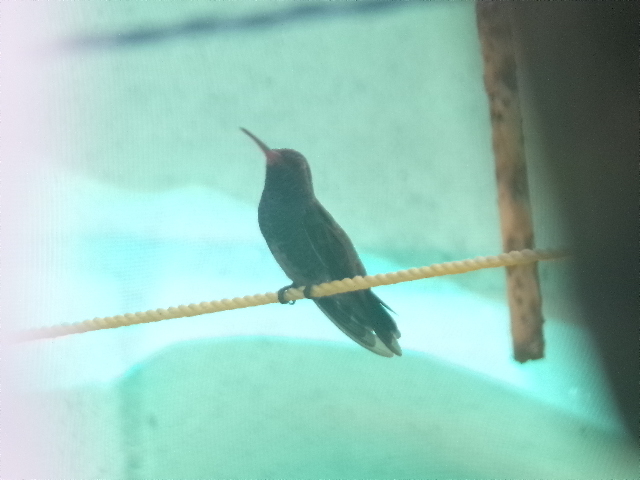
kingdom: Animalia
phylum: Chordata
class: Aves
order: Apodiformes
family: Trochilidae
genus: Cynanthus
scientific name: Cynanthus latirostris
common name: Broad-billed hummingbird
